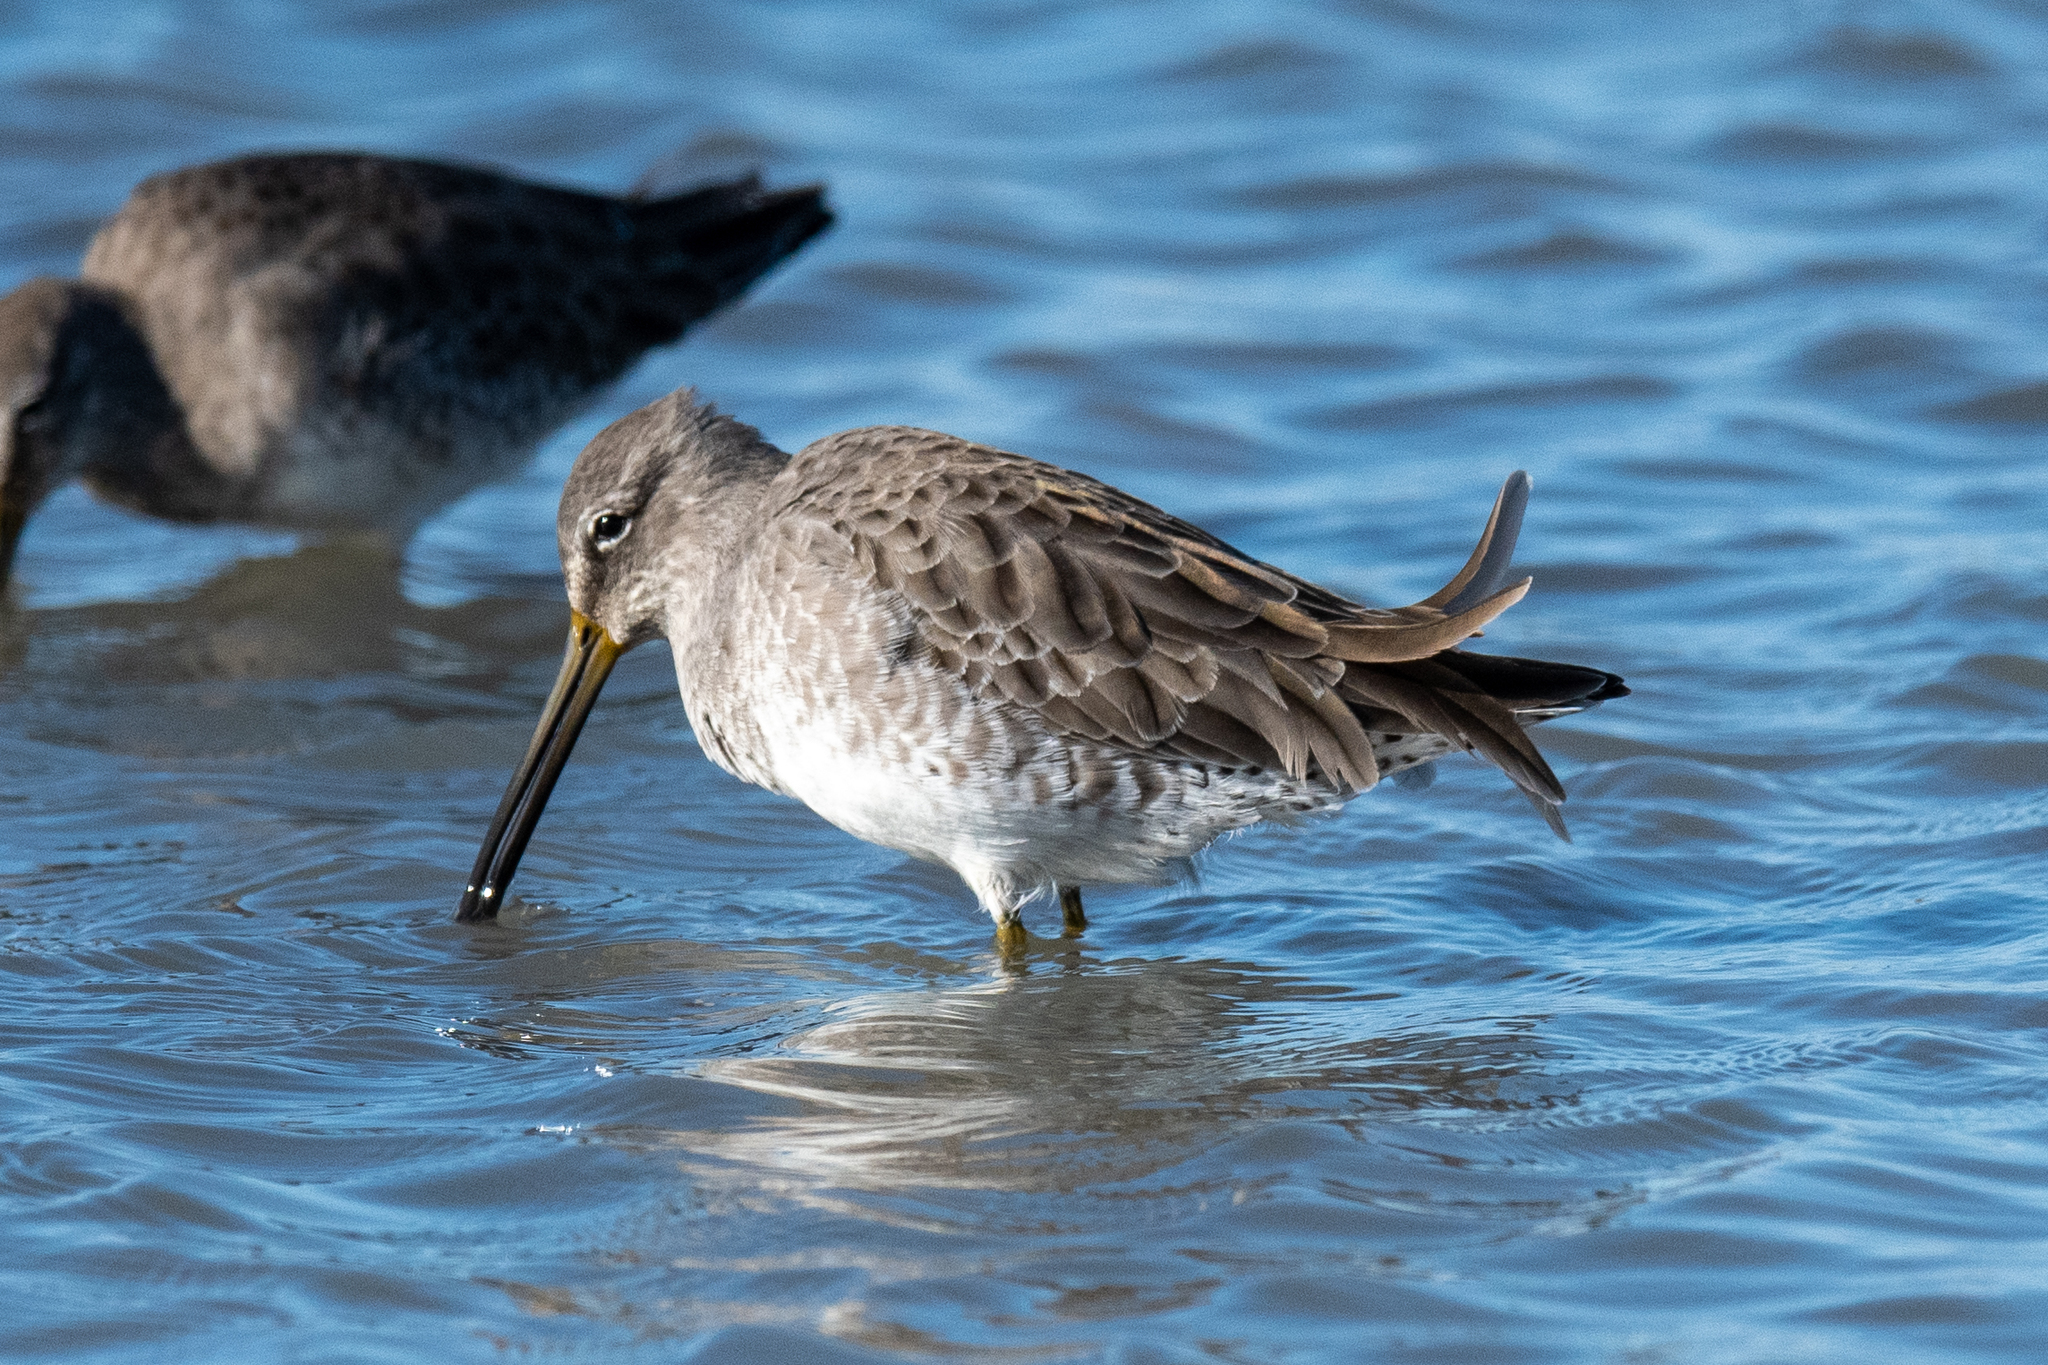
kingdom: Animalia
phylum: Chordata
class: Aves
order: Charadriiformes
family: Scolopacidae
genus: Limnodromus
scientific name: Limnodromus scolopaceus
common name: Long-billed dowitcher
